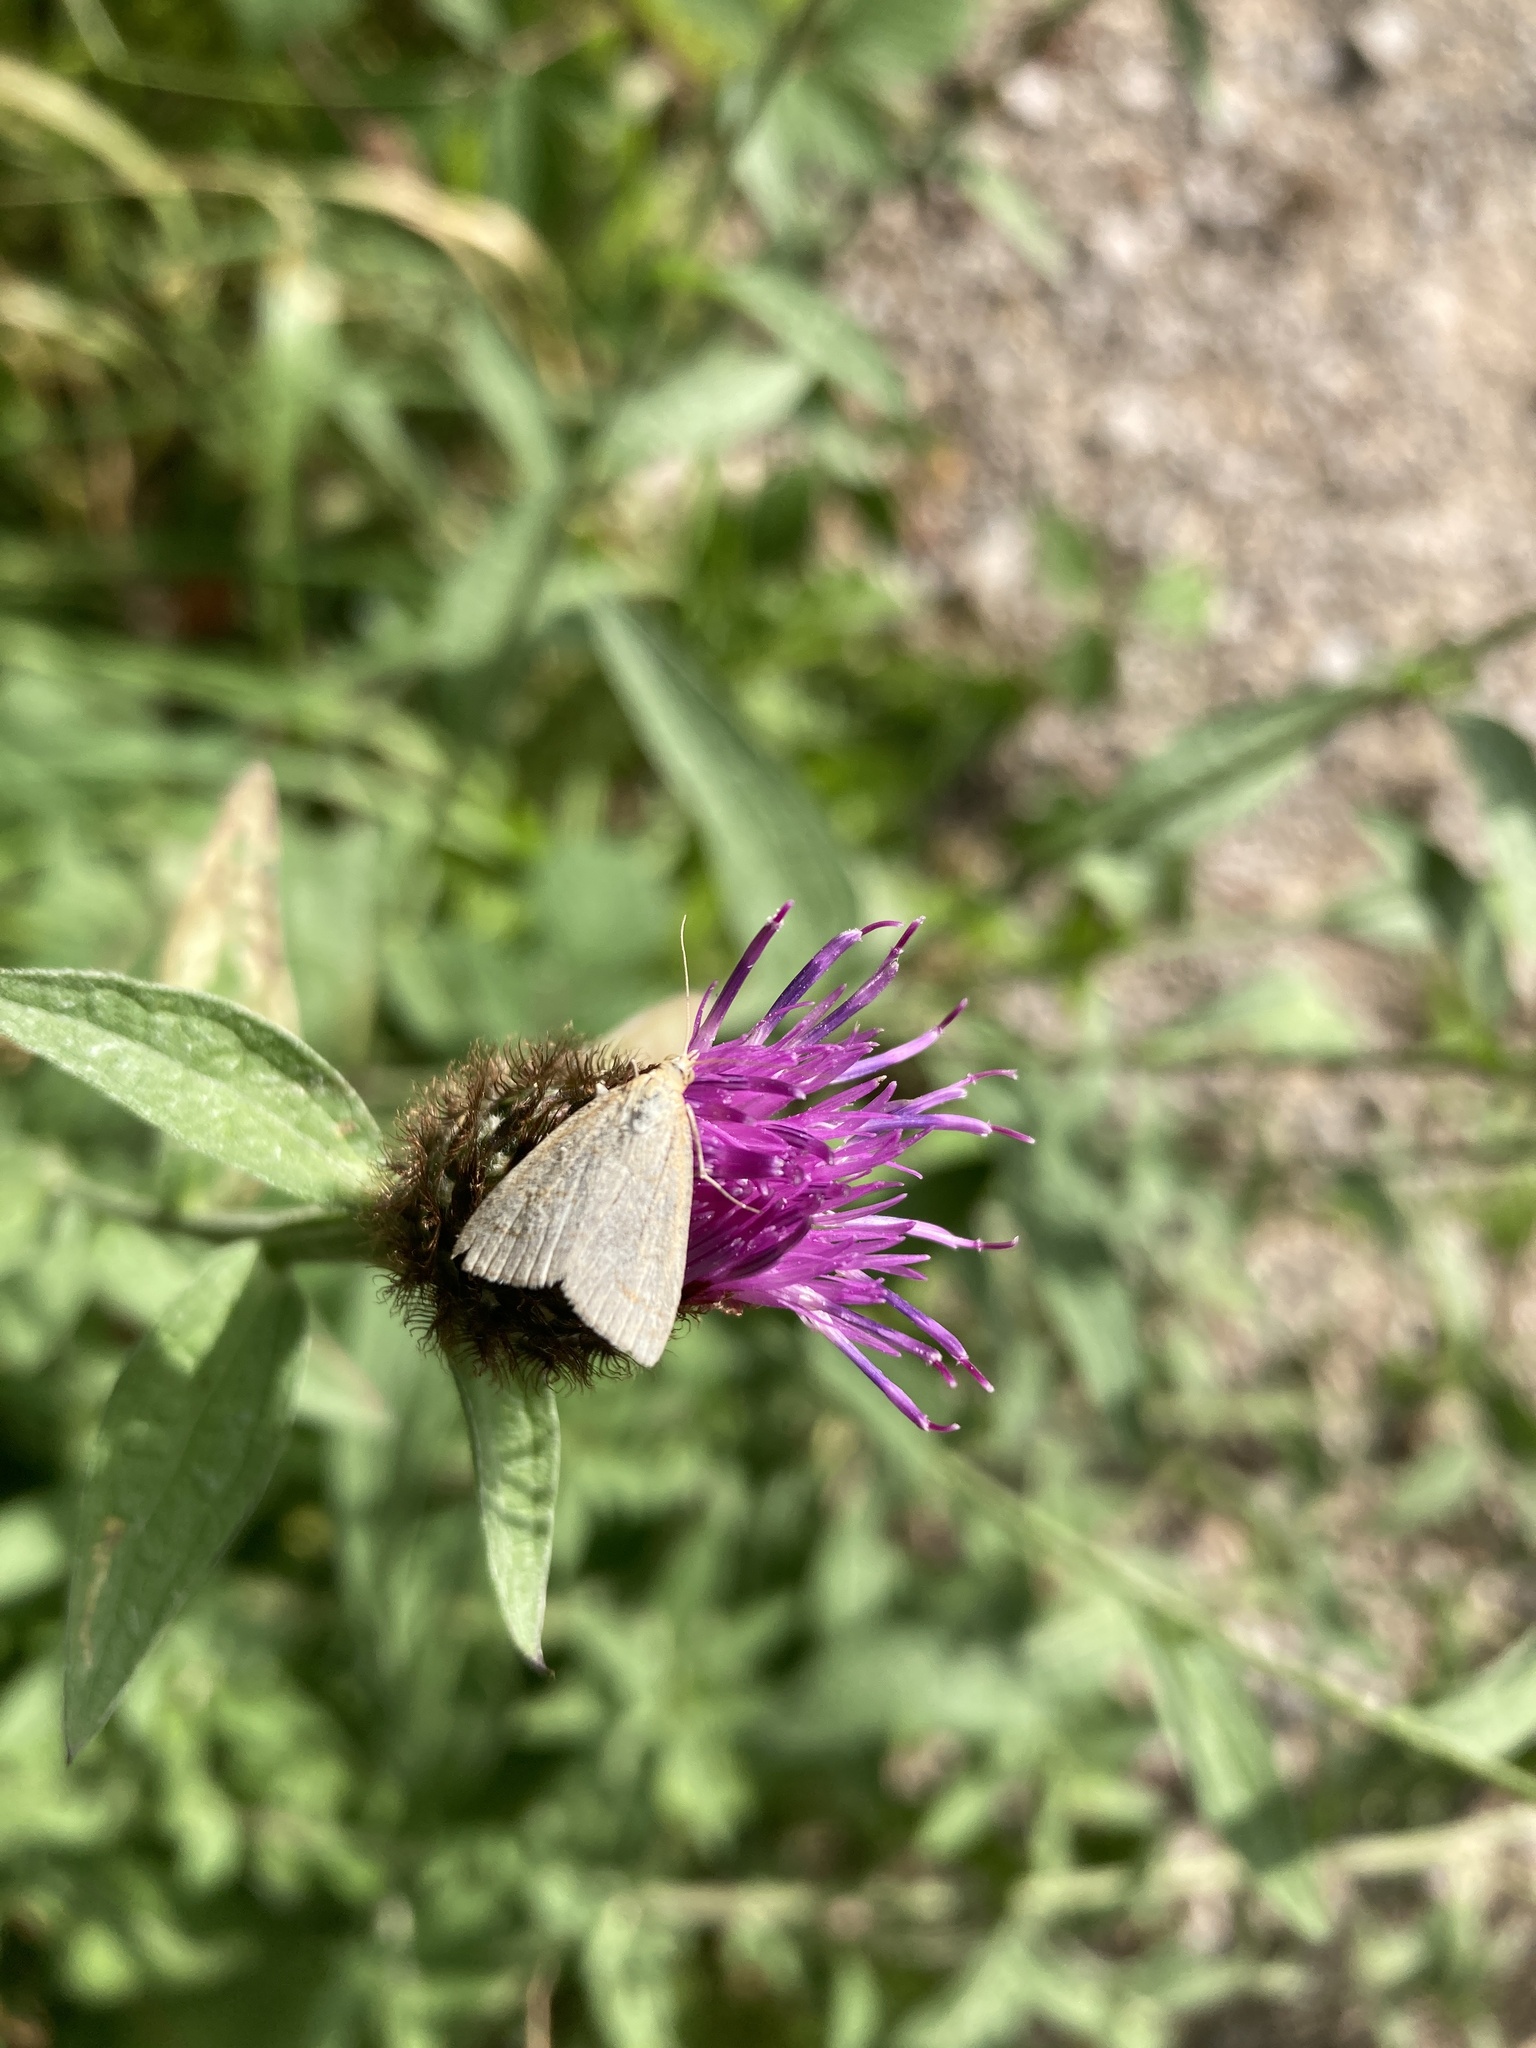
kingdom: Animalia
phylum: Arthropoda
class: Insecta
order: Lepidoptera
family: Crambidae
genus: Udea
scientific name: Udea lutealis
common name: Pale straw pearl
